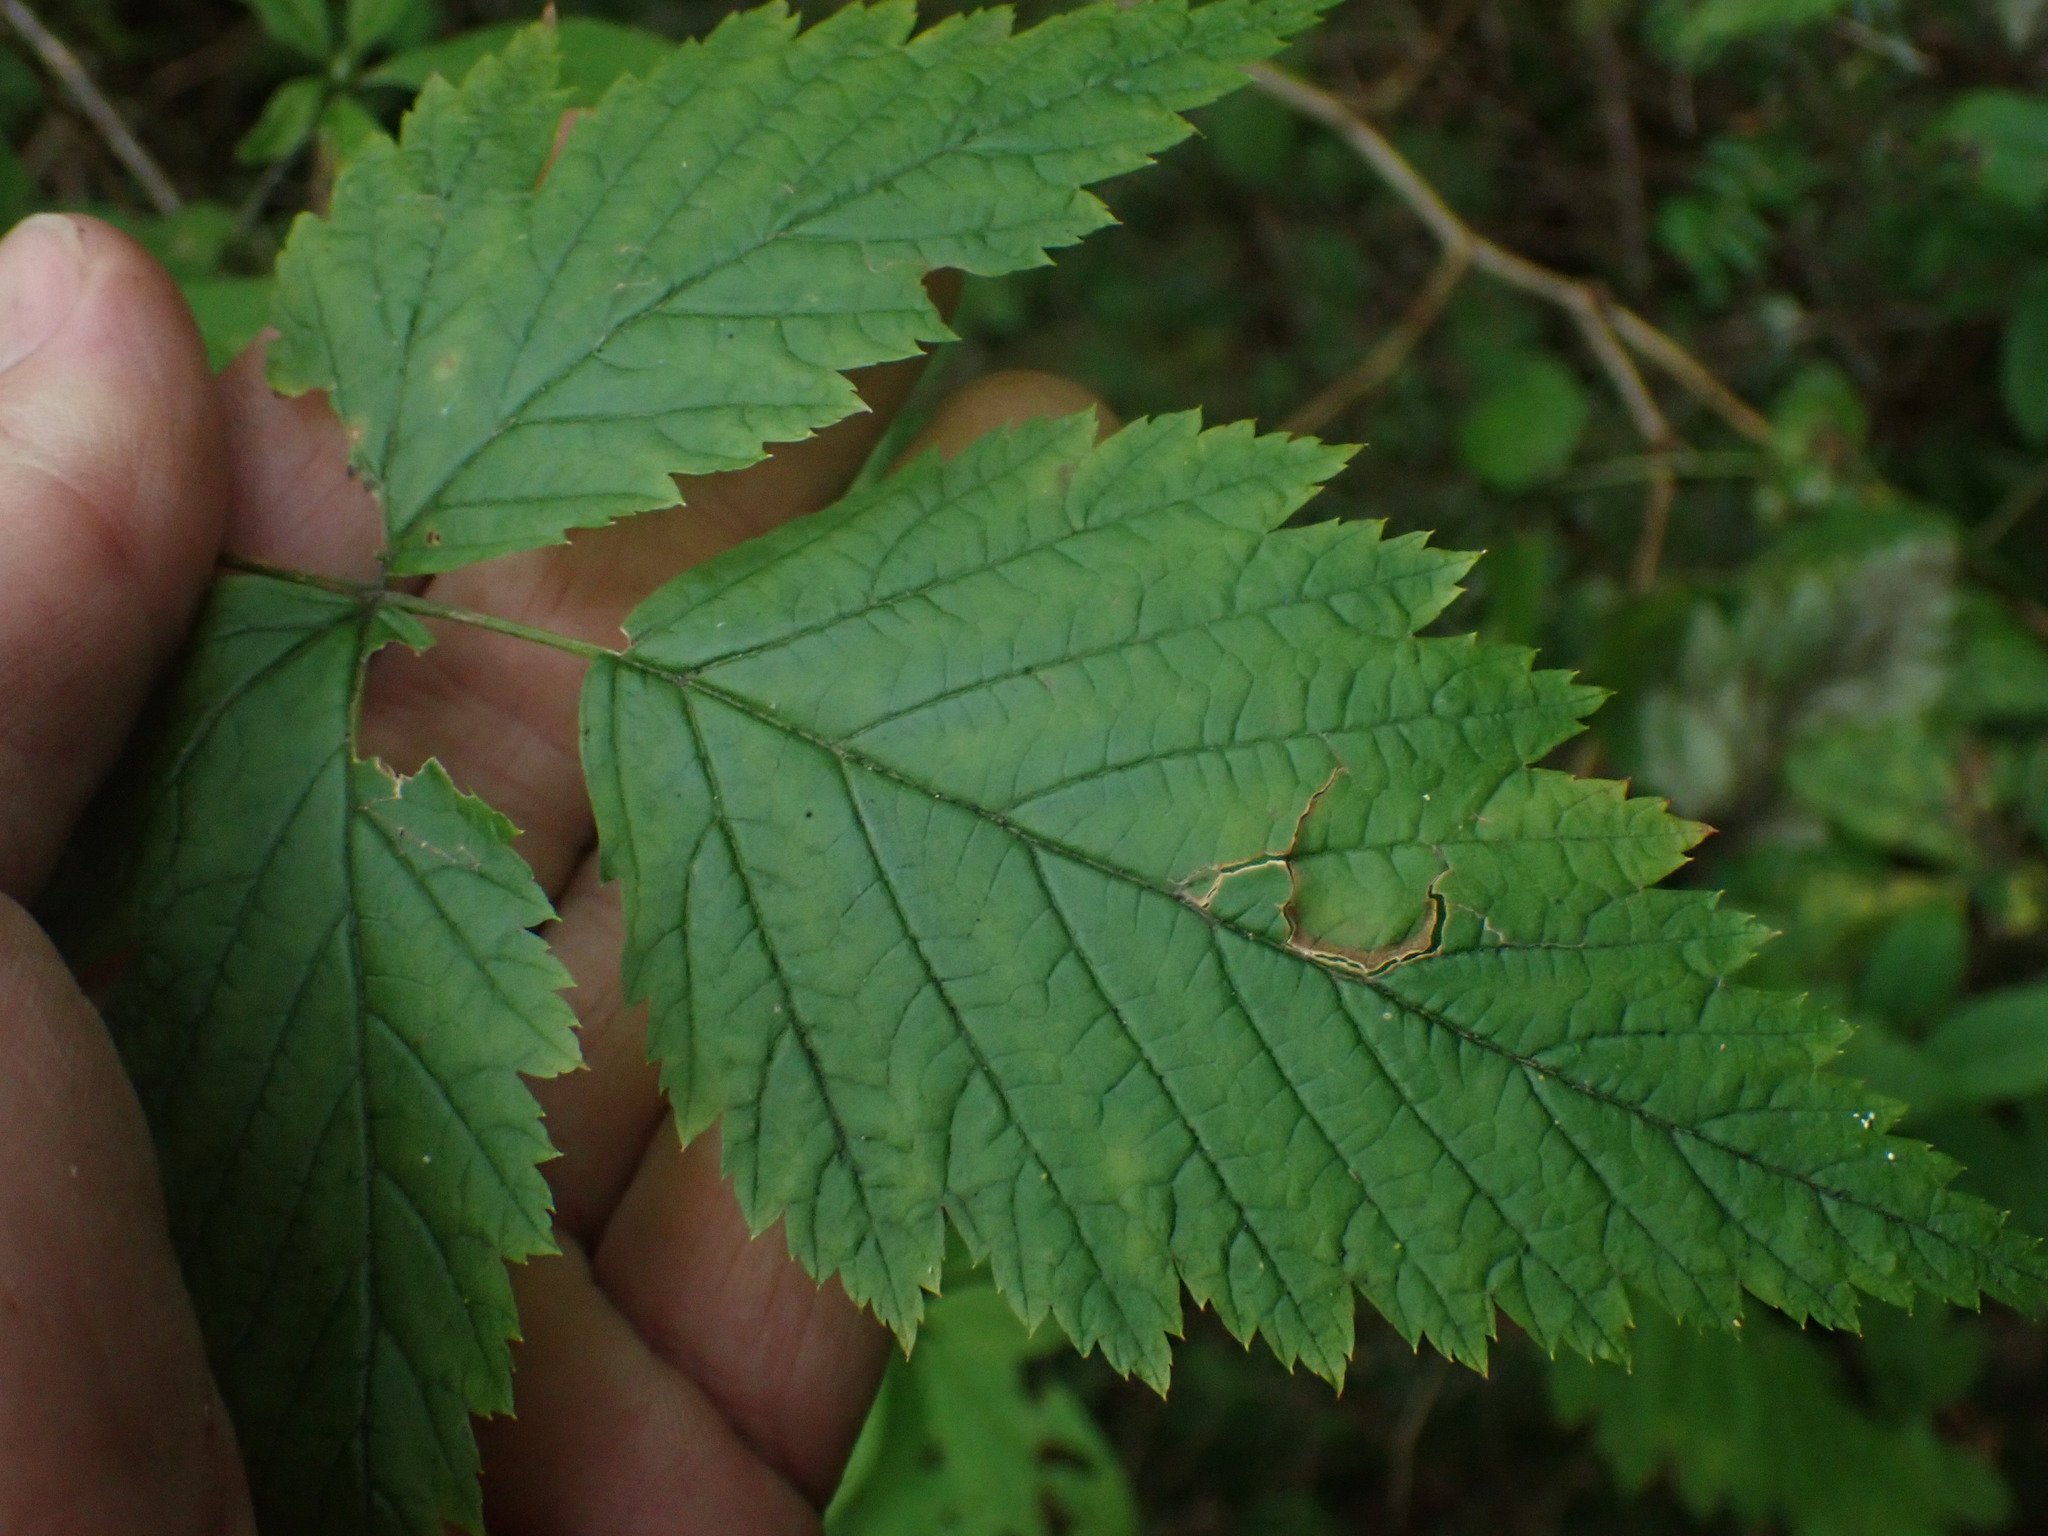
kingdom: Plantae
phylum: Tracheophyta
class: Magnoliopsida
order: Rosales
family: Rosaceae
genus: Rubus
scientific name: Rubus spectabilis
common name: Salmonberry
